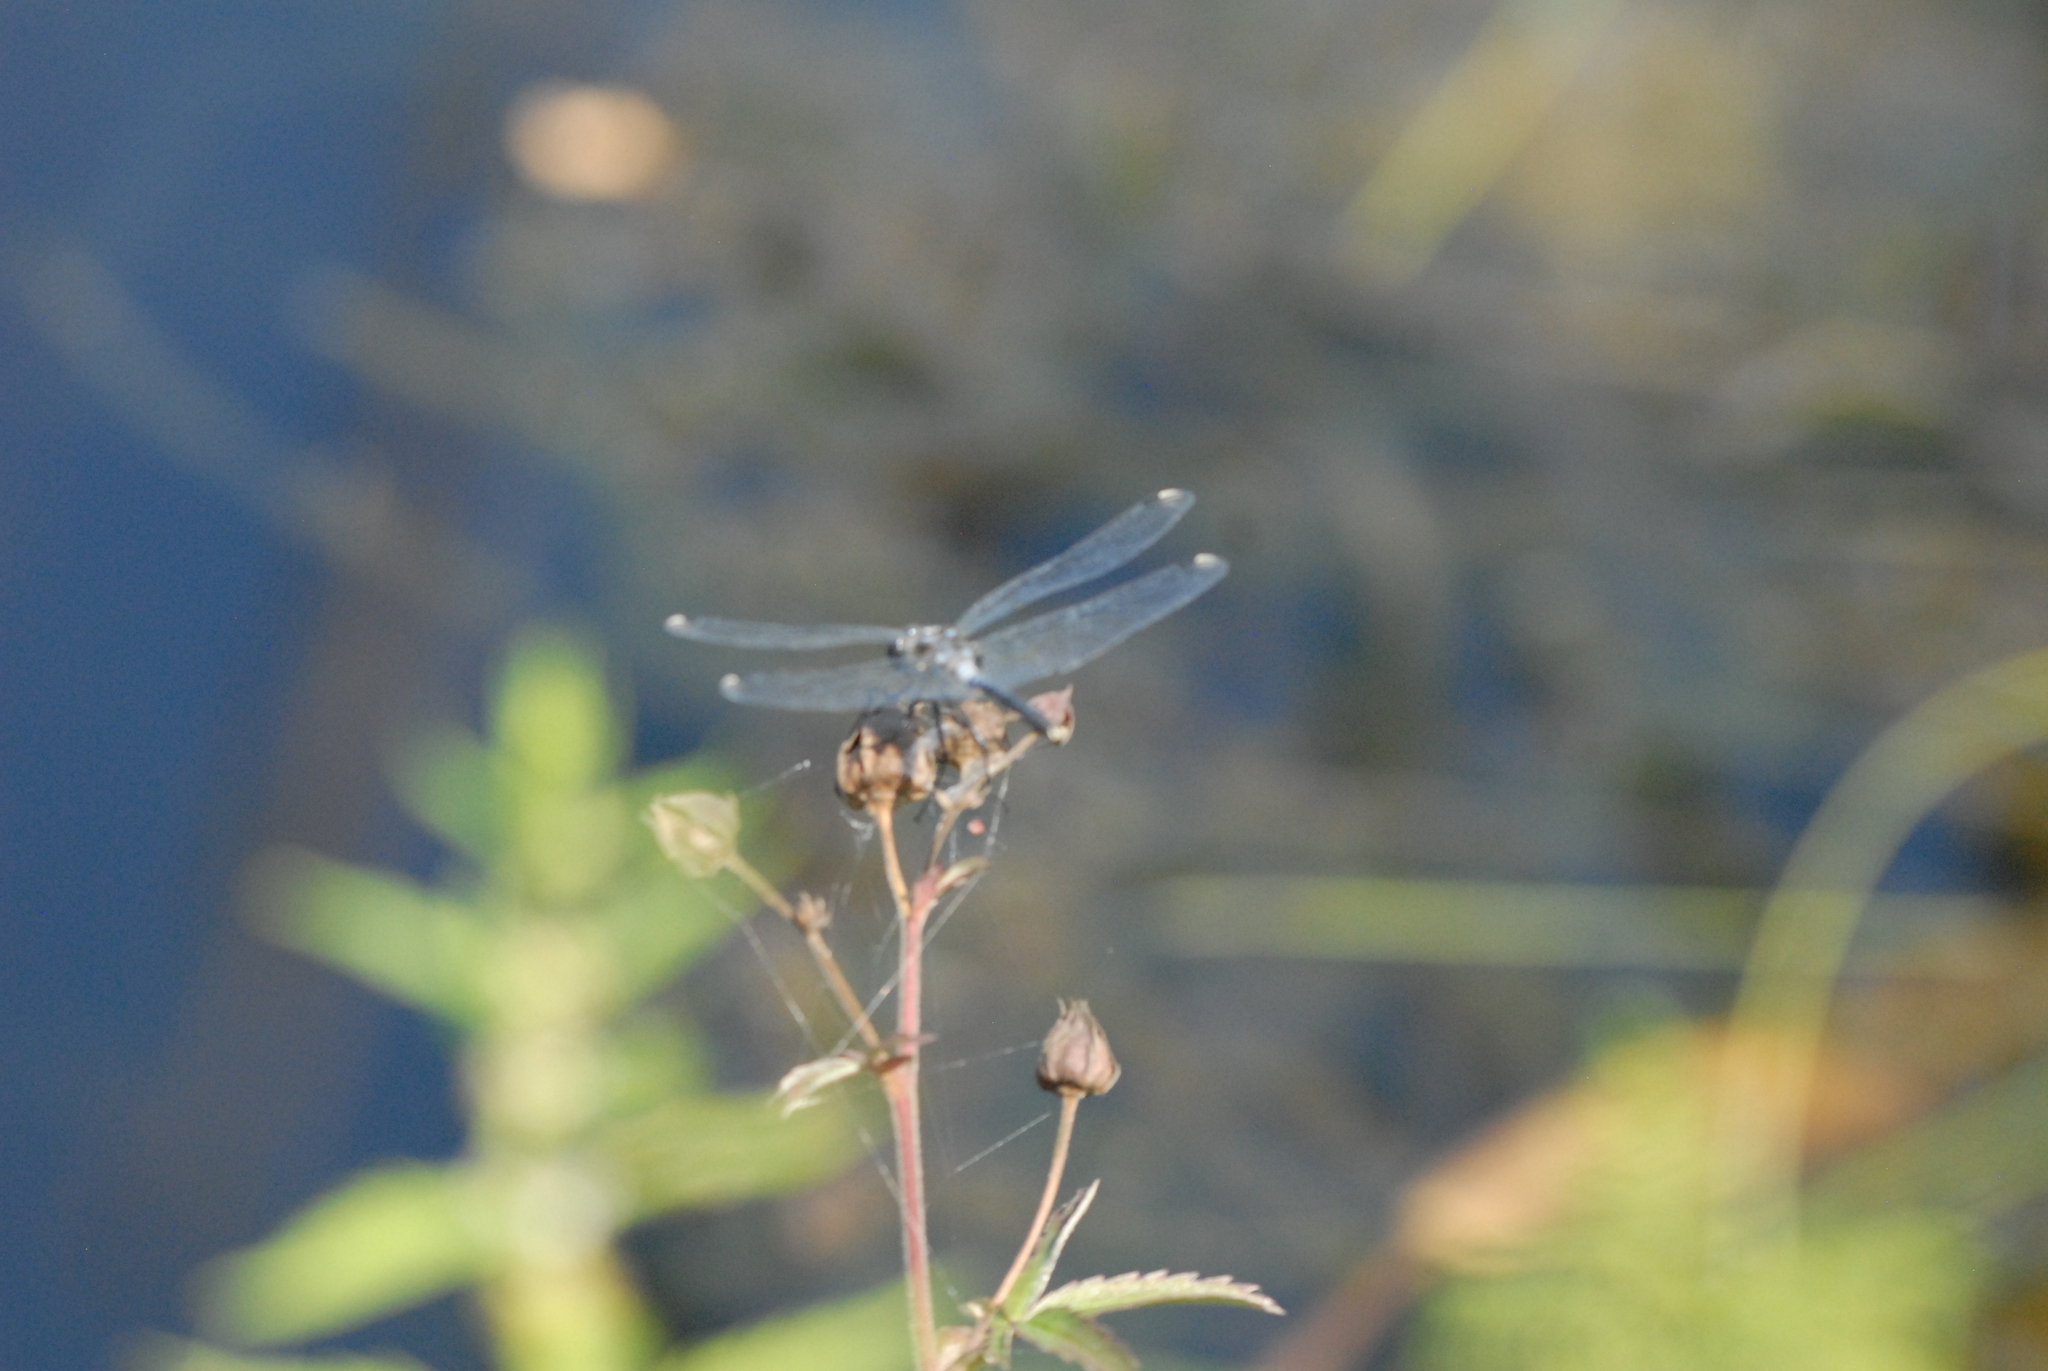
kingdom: Animalia
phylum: Arthropoda
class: Insecta
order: Odonata
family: Libellulidae
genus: Leucorrhinia
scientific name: Leucorrhinia albifrons
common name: Dark whiteface
